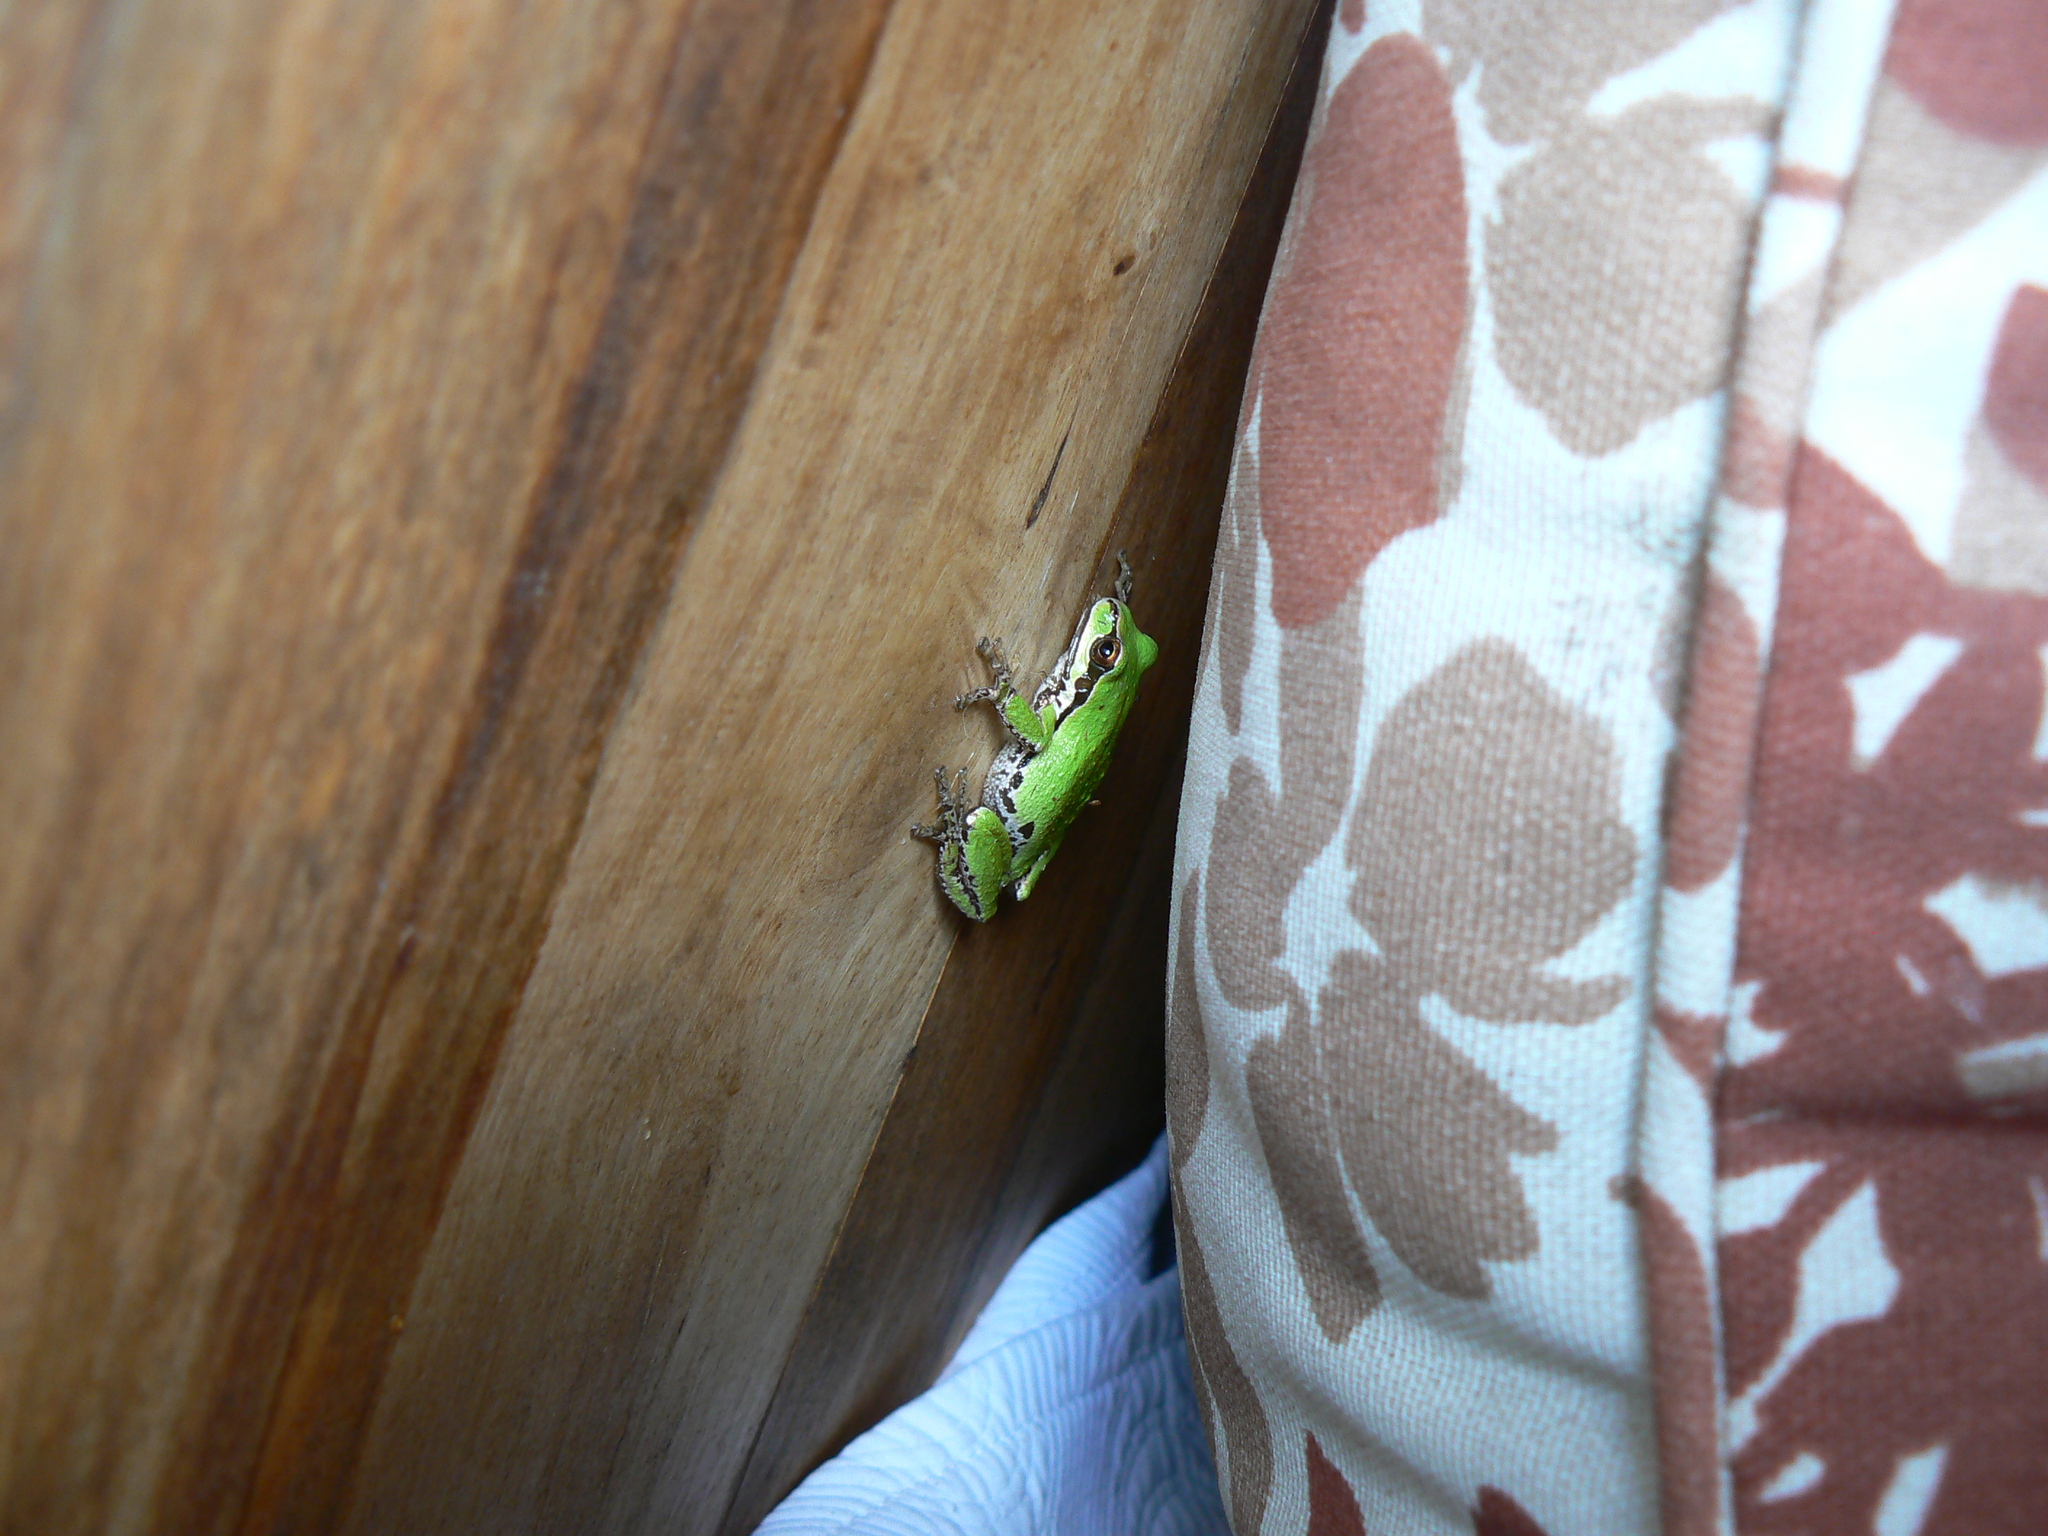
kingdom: Animalia
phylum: Chordata
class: Amphibia
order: Anura
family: Hylidae
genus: Pseudacris
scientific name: Pseudacris regilla
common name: Pacific chorus frog
